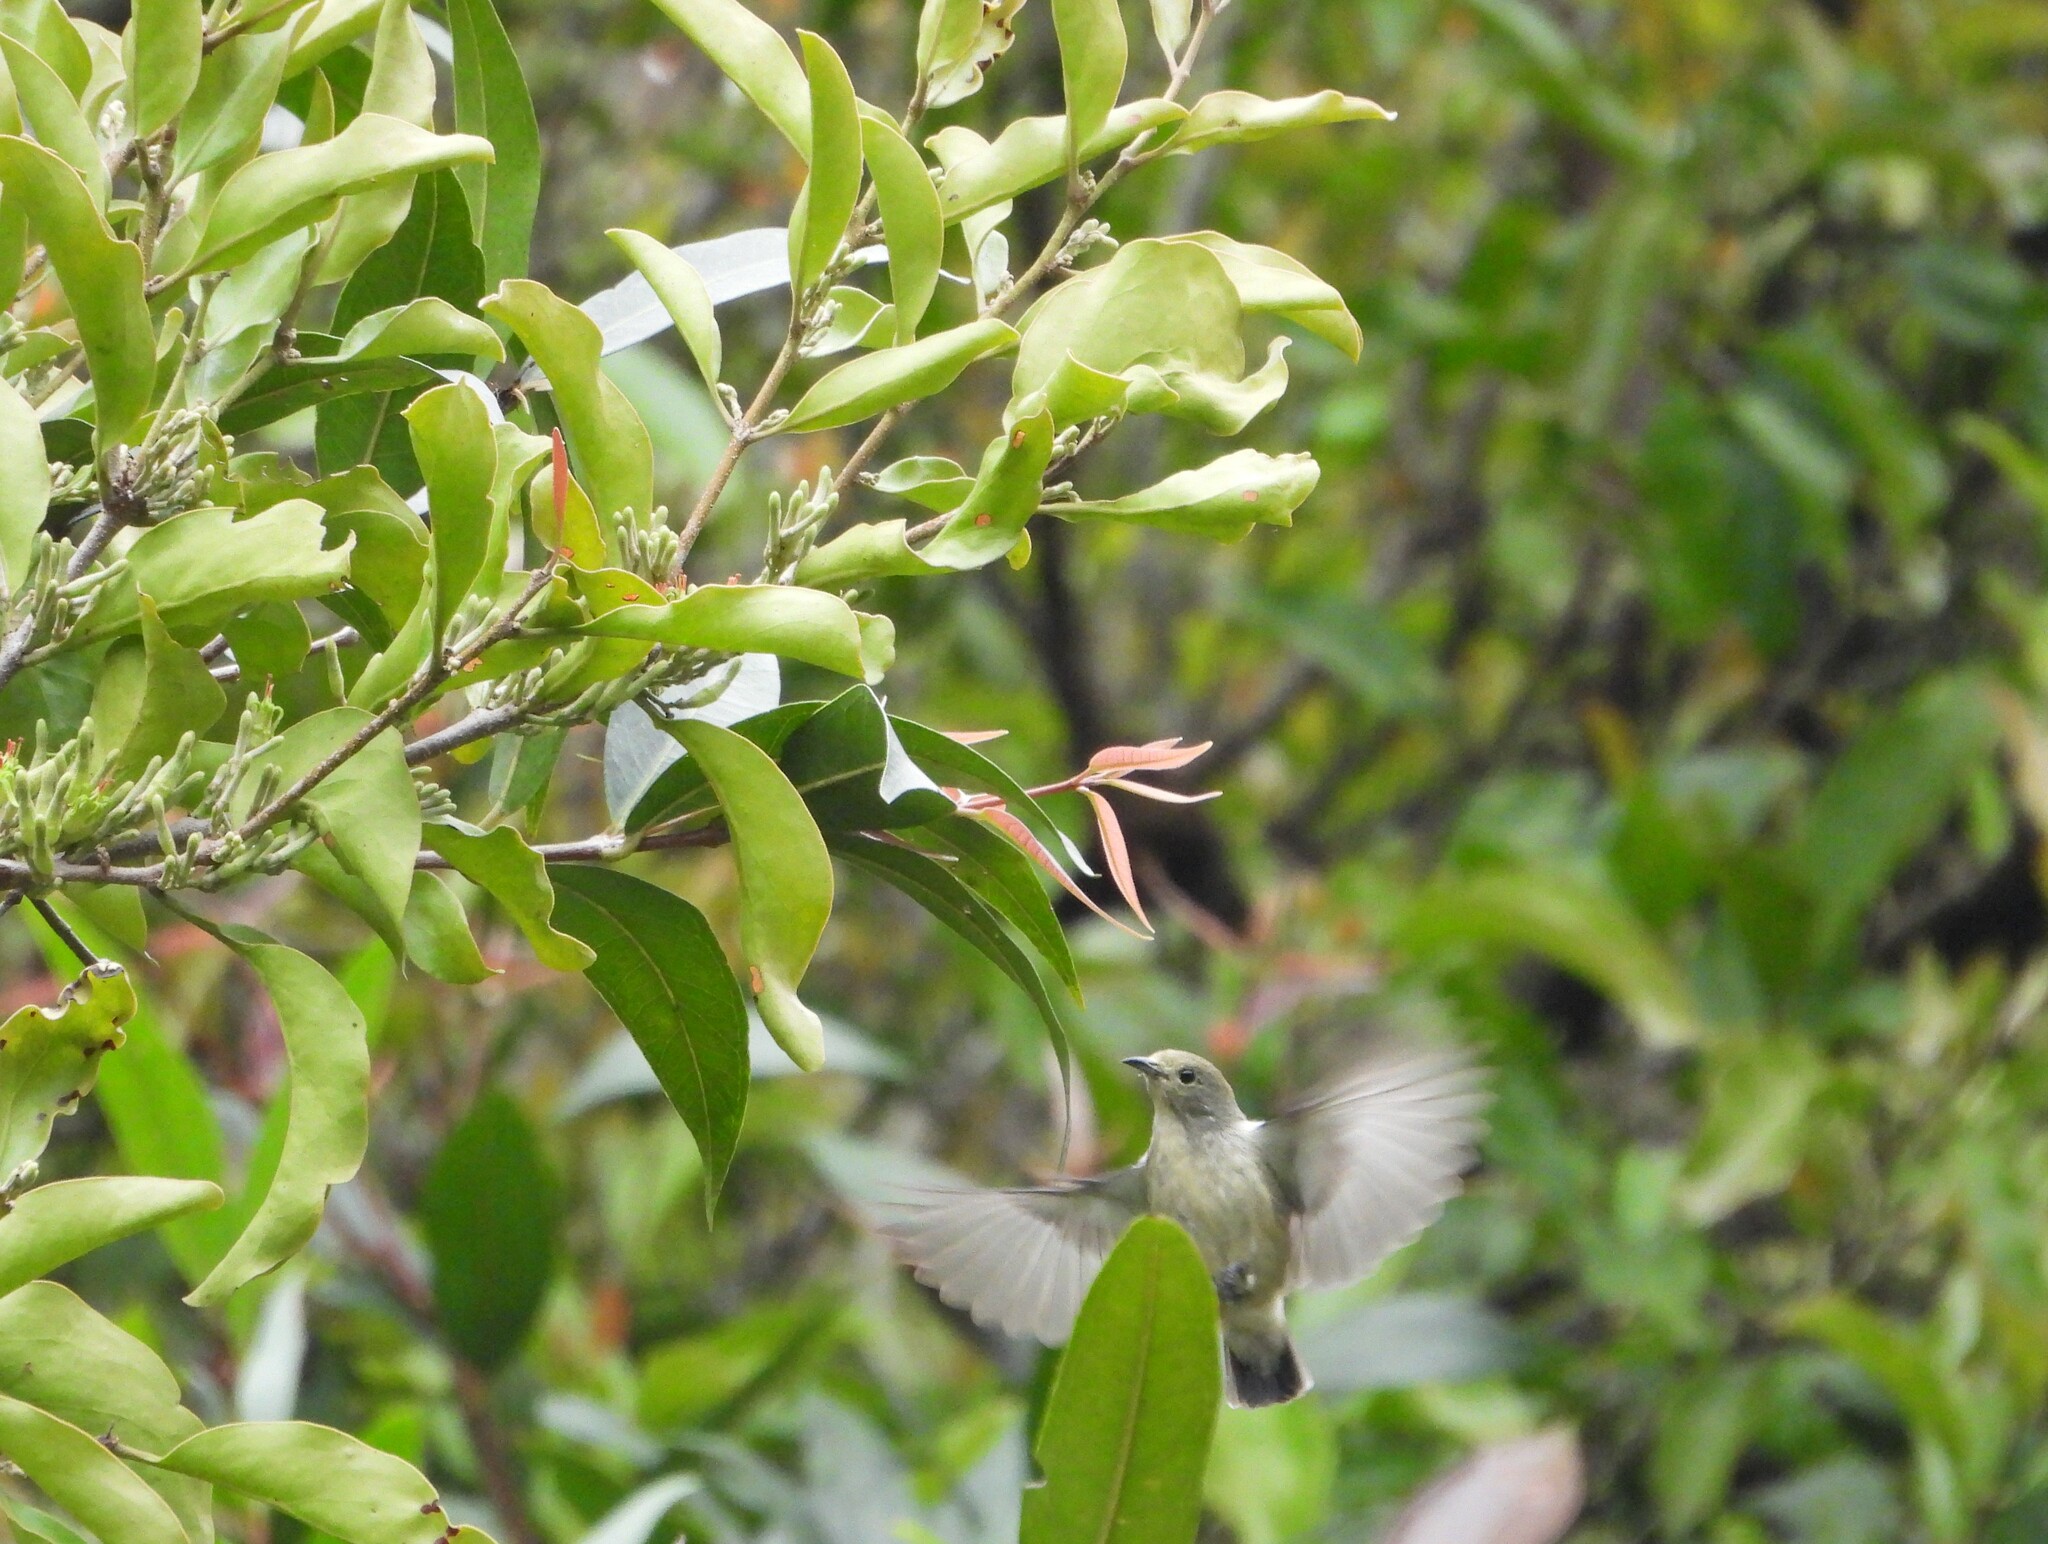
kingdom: Animalia
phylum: Chordata
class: Aves
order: Passeriformes
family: Dicaeidae
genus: Dicaeum
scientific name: Dicaeum cruentatum
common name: Scarlet-backed flowerpecker
